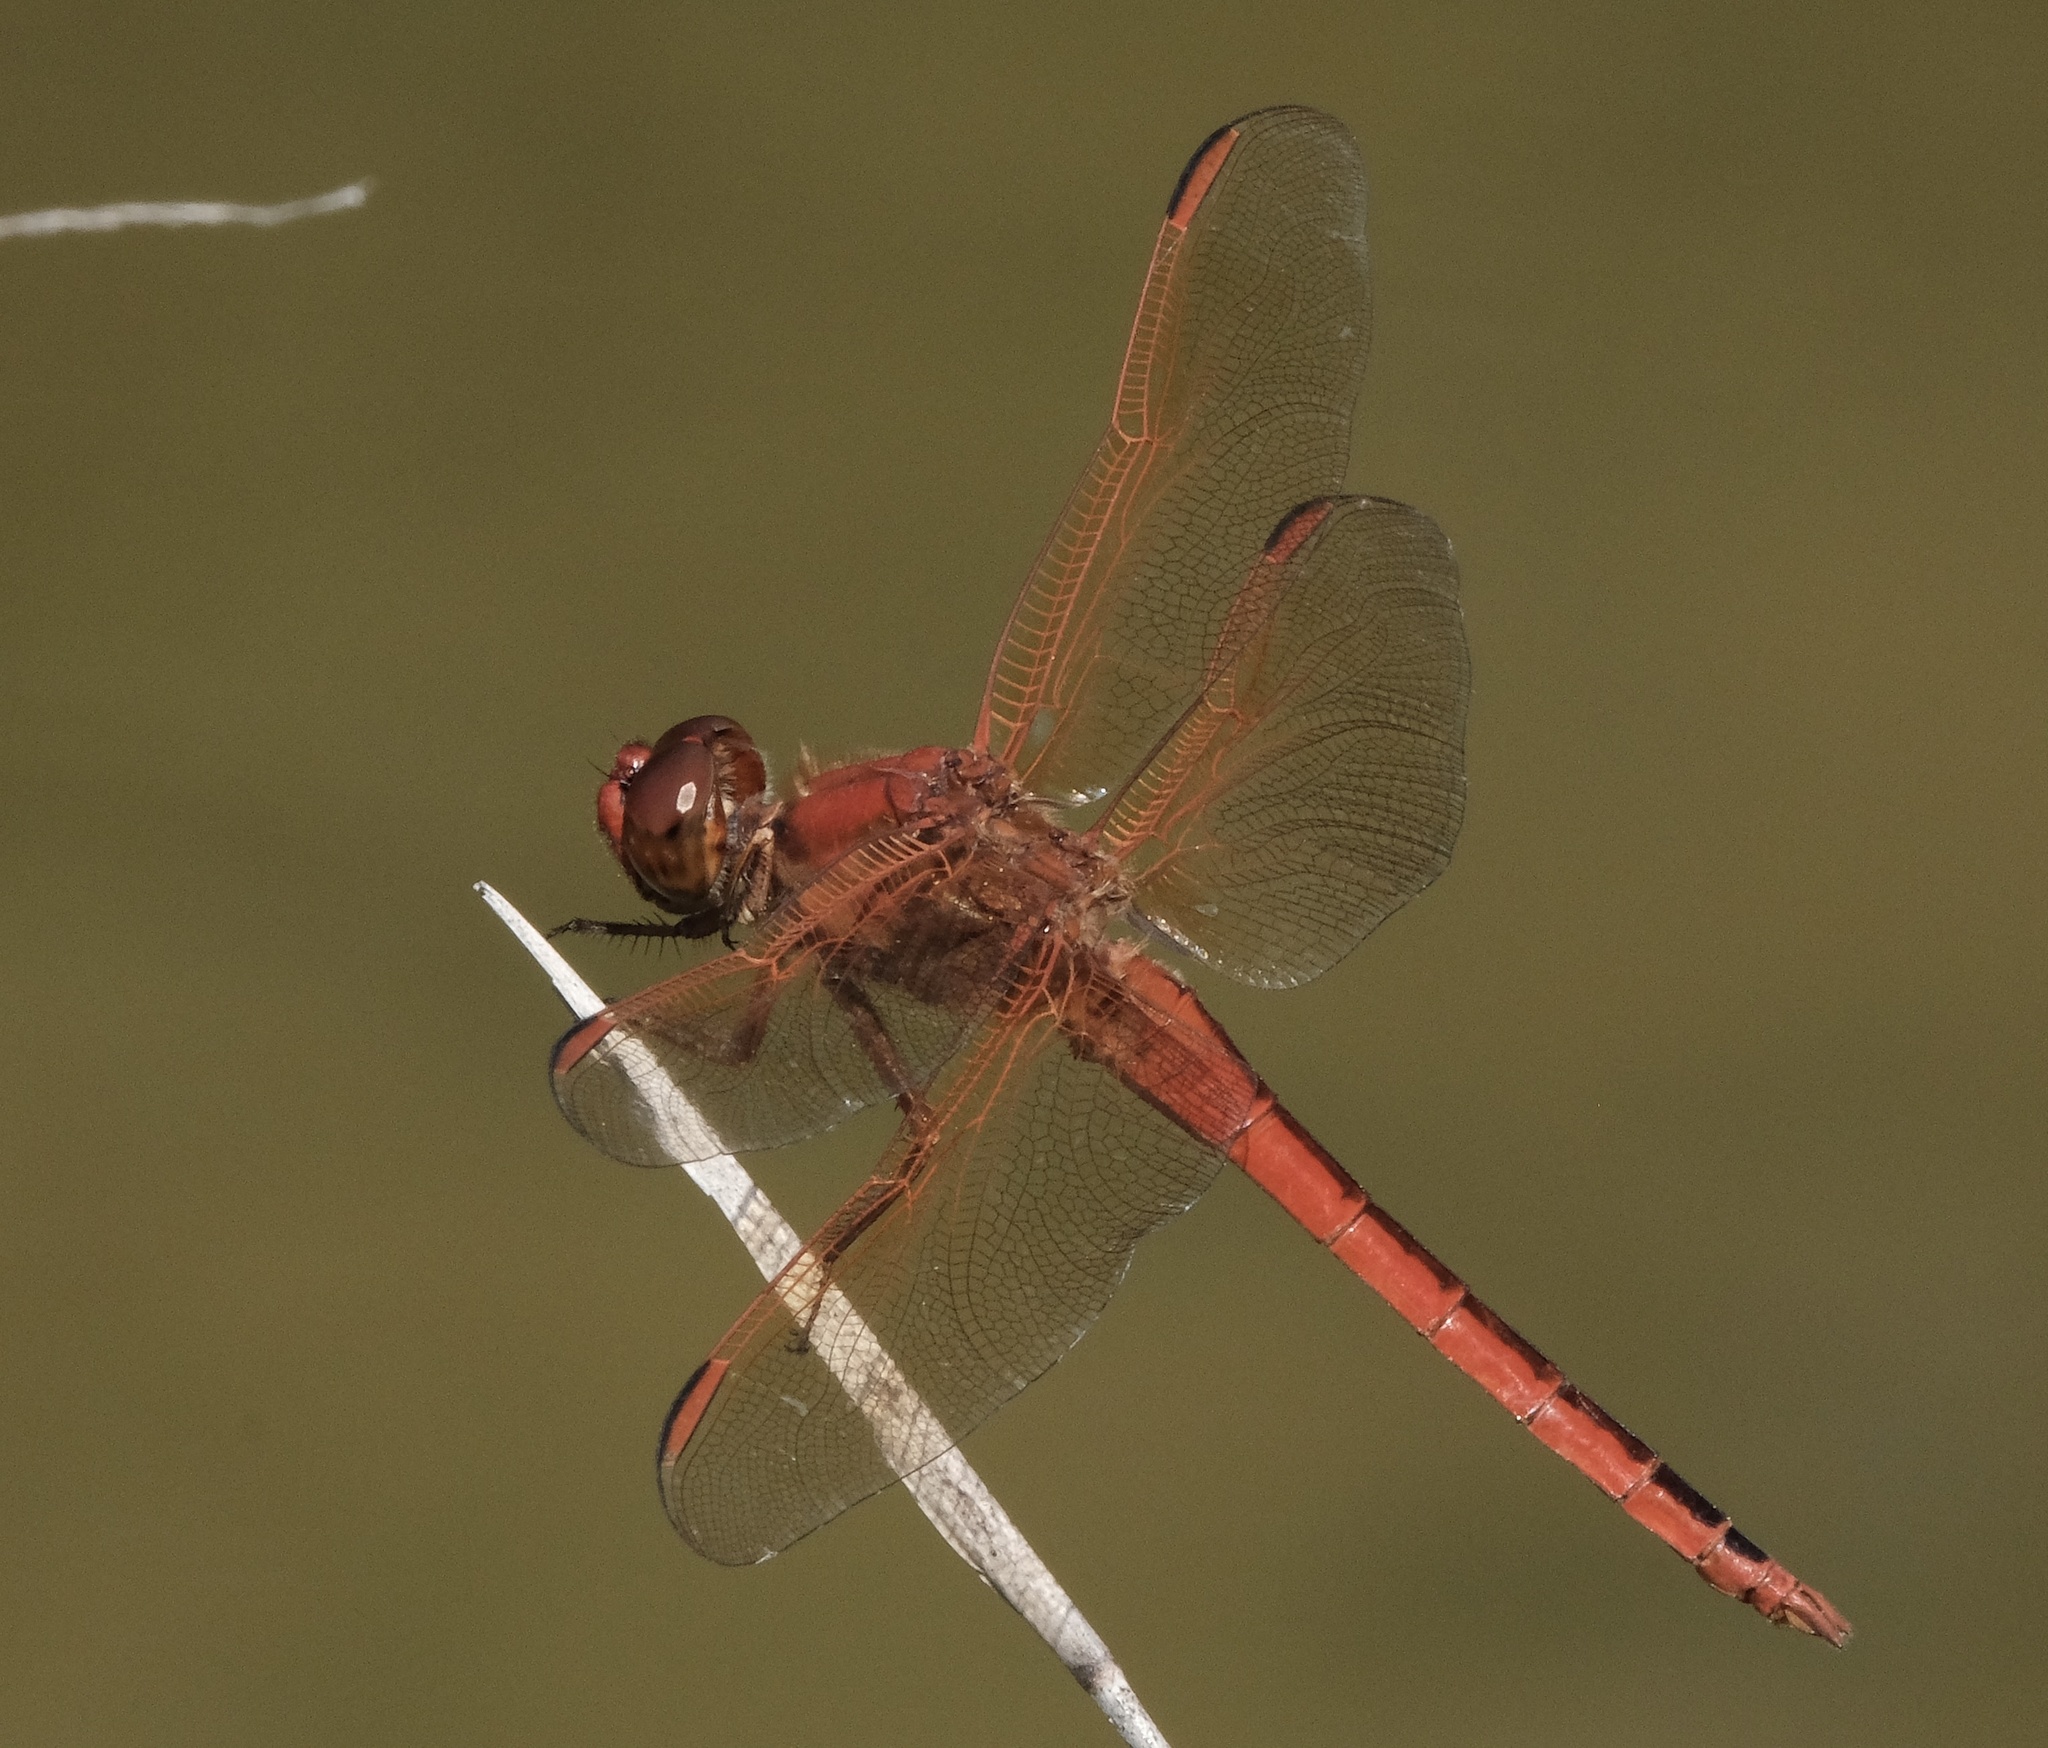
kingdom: Animalia
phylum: Arthropoda
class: Insecta
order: Odonata
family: Libellulidae
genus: Libellula
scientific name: Libellula needhami
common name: Needham's skimmer
